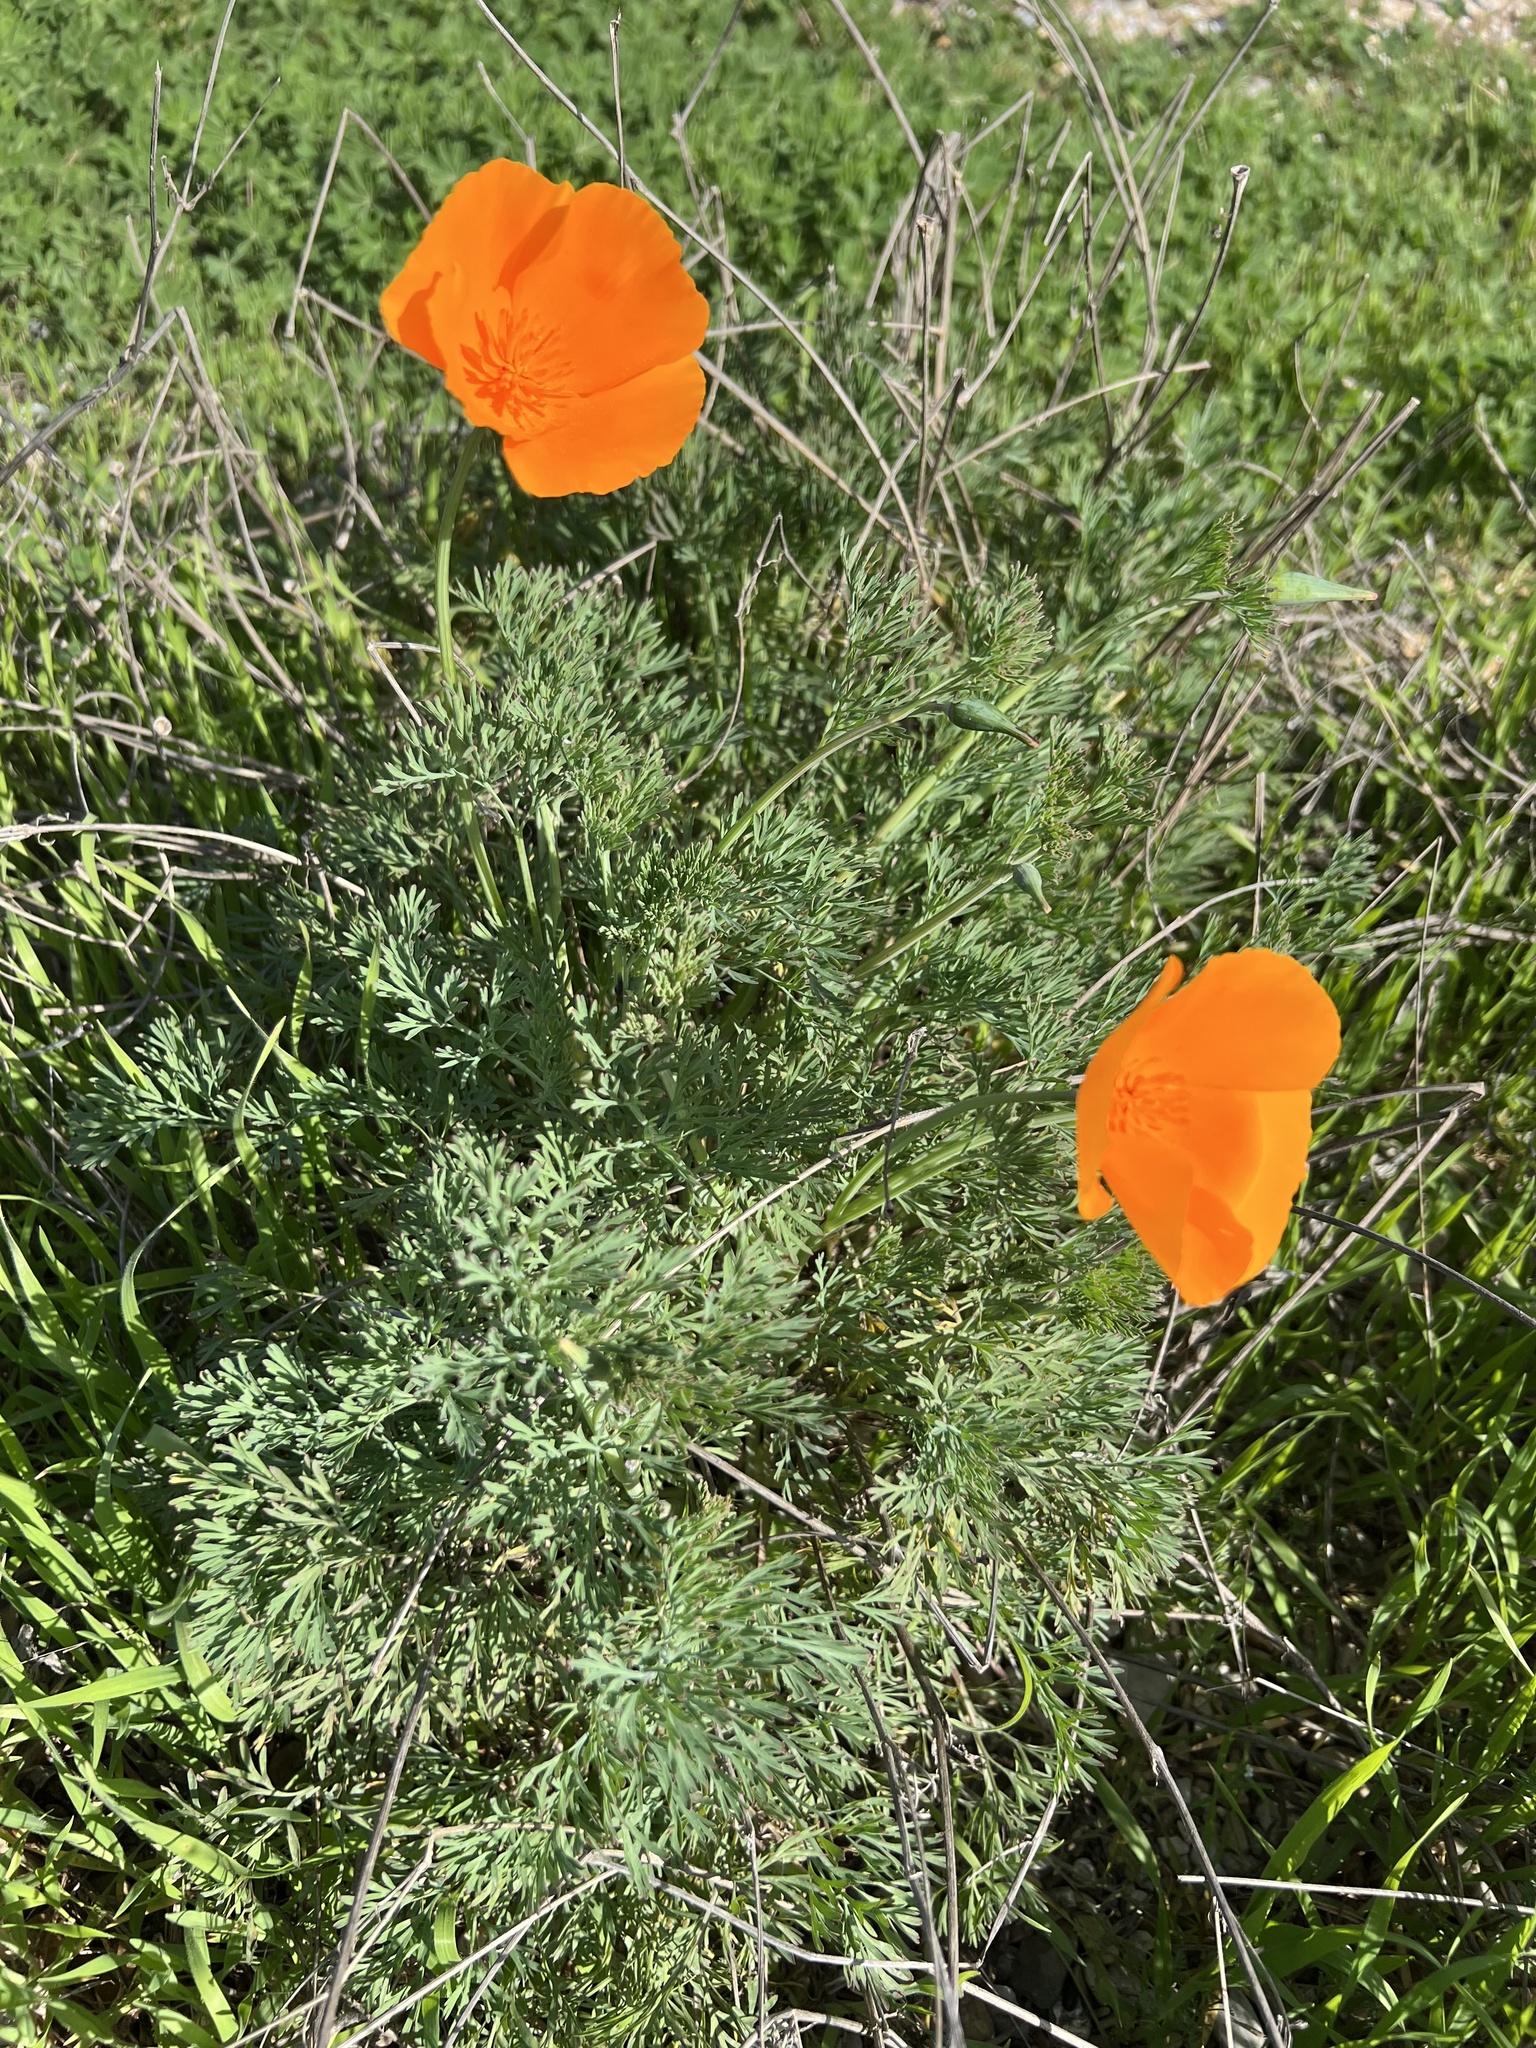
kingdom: Plantae
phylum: Tracheophyta
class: Magnoliopsida
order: Ranunculales
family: Papaveraceae
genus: Eschscholzia
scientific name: Eschscholzia californica
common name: California poppy
